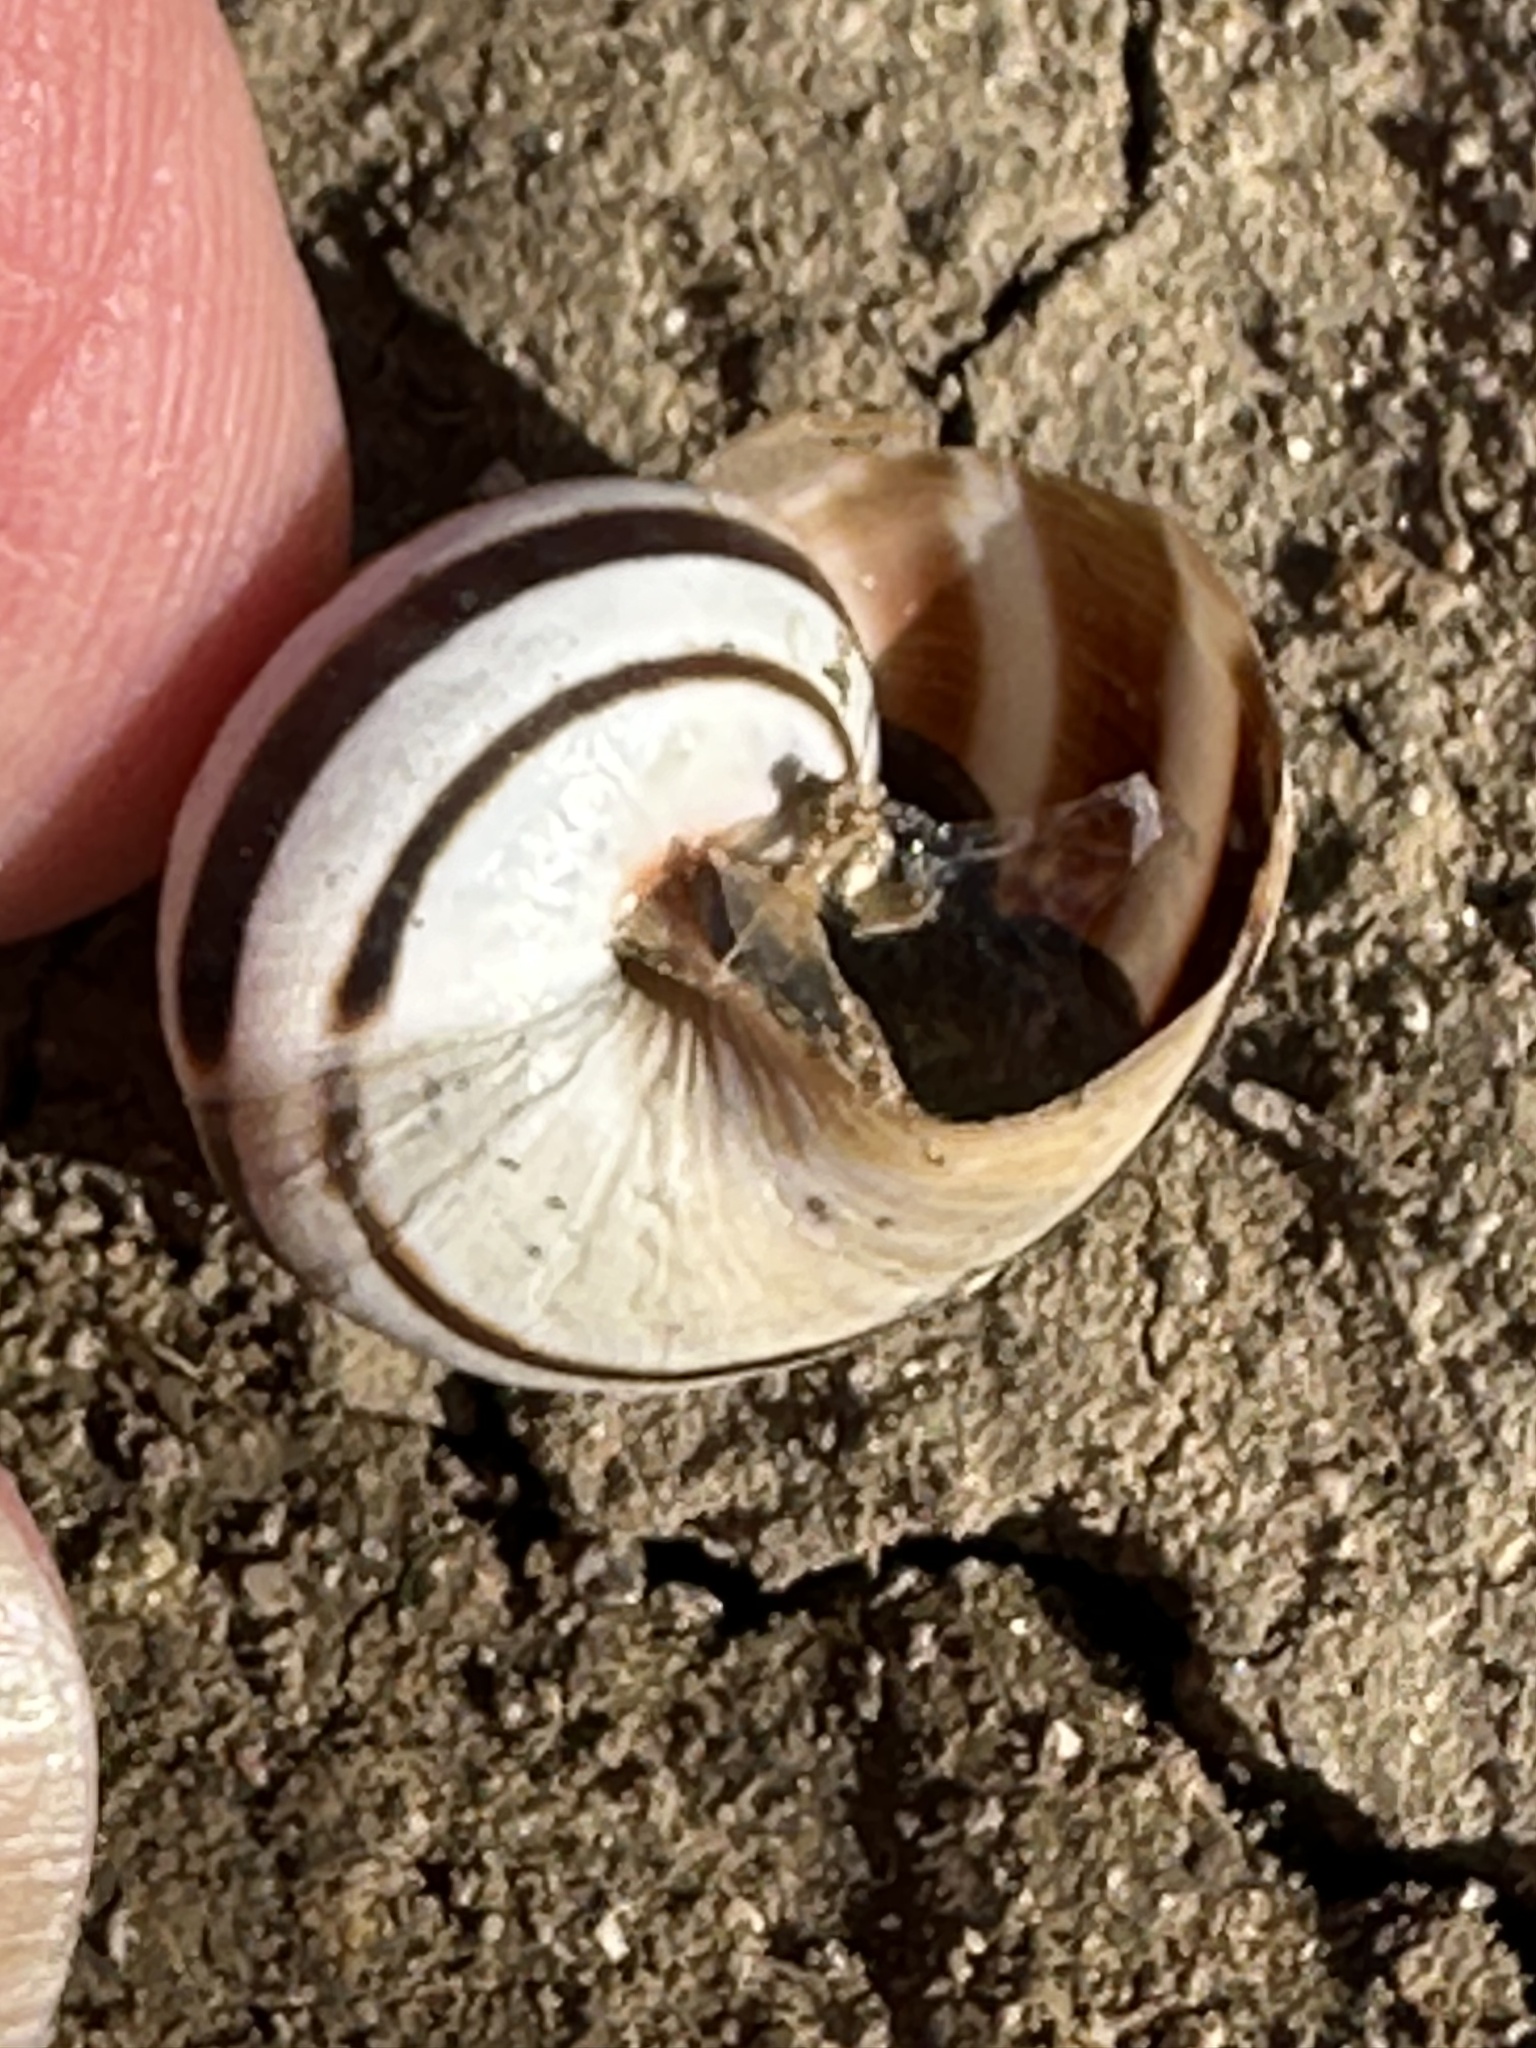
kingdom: Animalia
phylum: Mollusca
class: Gastropoda
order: Stylommatophora
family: Helicidae
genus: Otala
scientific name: Otala lactea
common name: Milk snail
